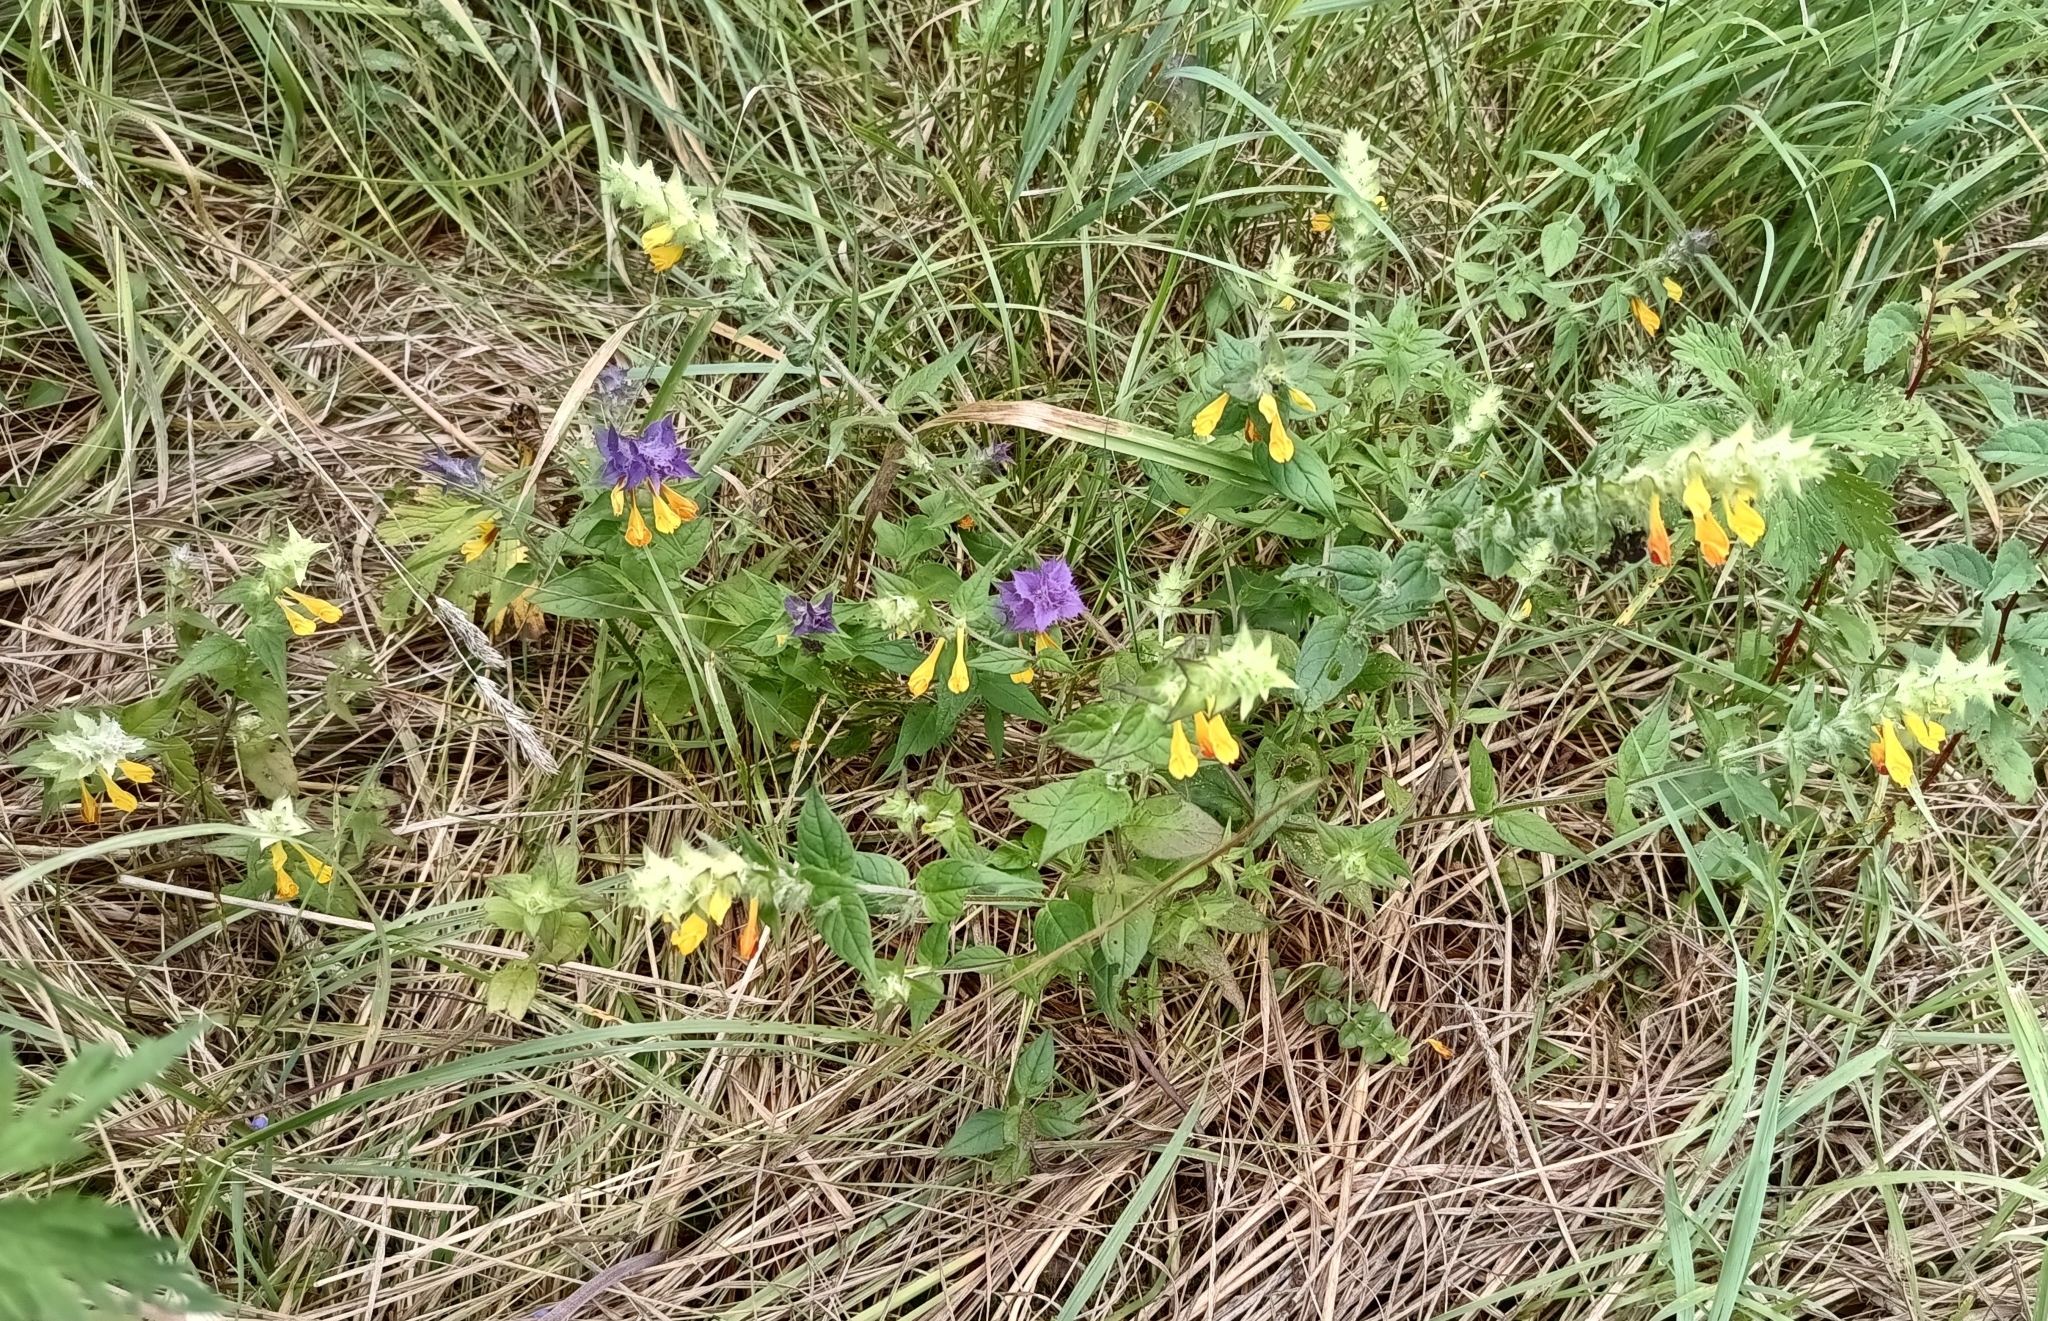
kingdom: Plantae
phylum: Tracheophyta
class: Magnoliopsida
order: Lamiales
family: Orobanchaceae
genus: Melampyrum
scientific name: Melampyrum nemorosum
